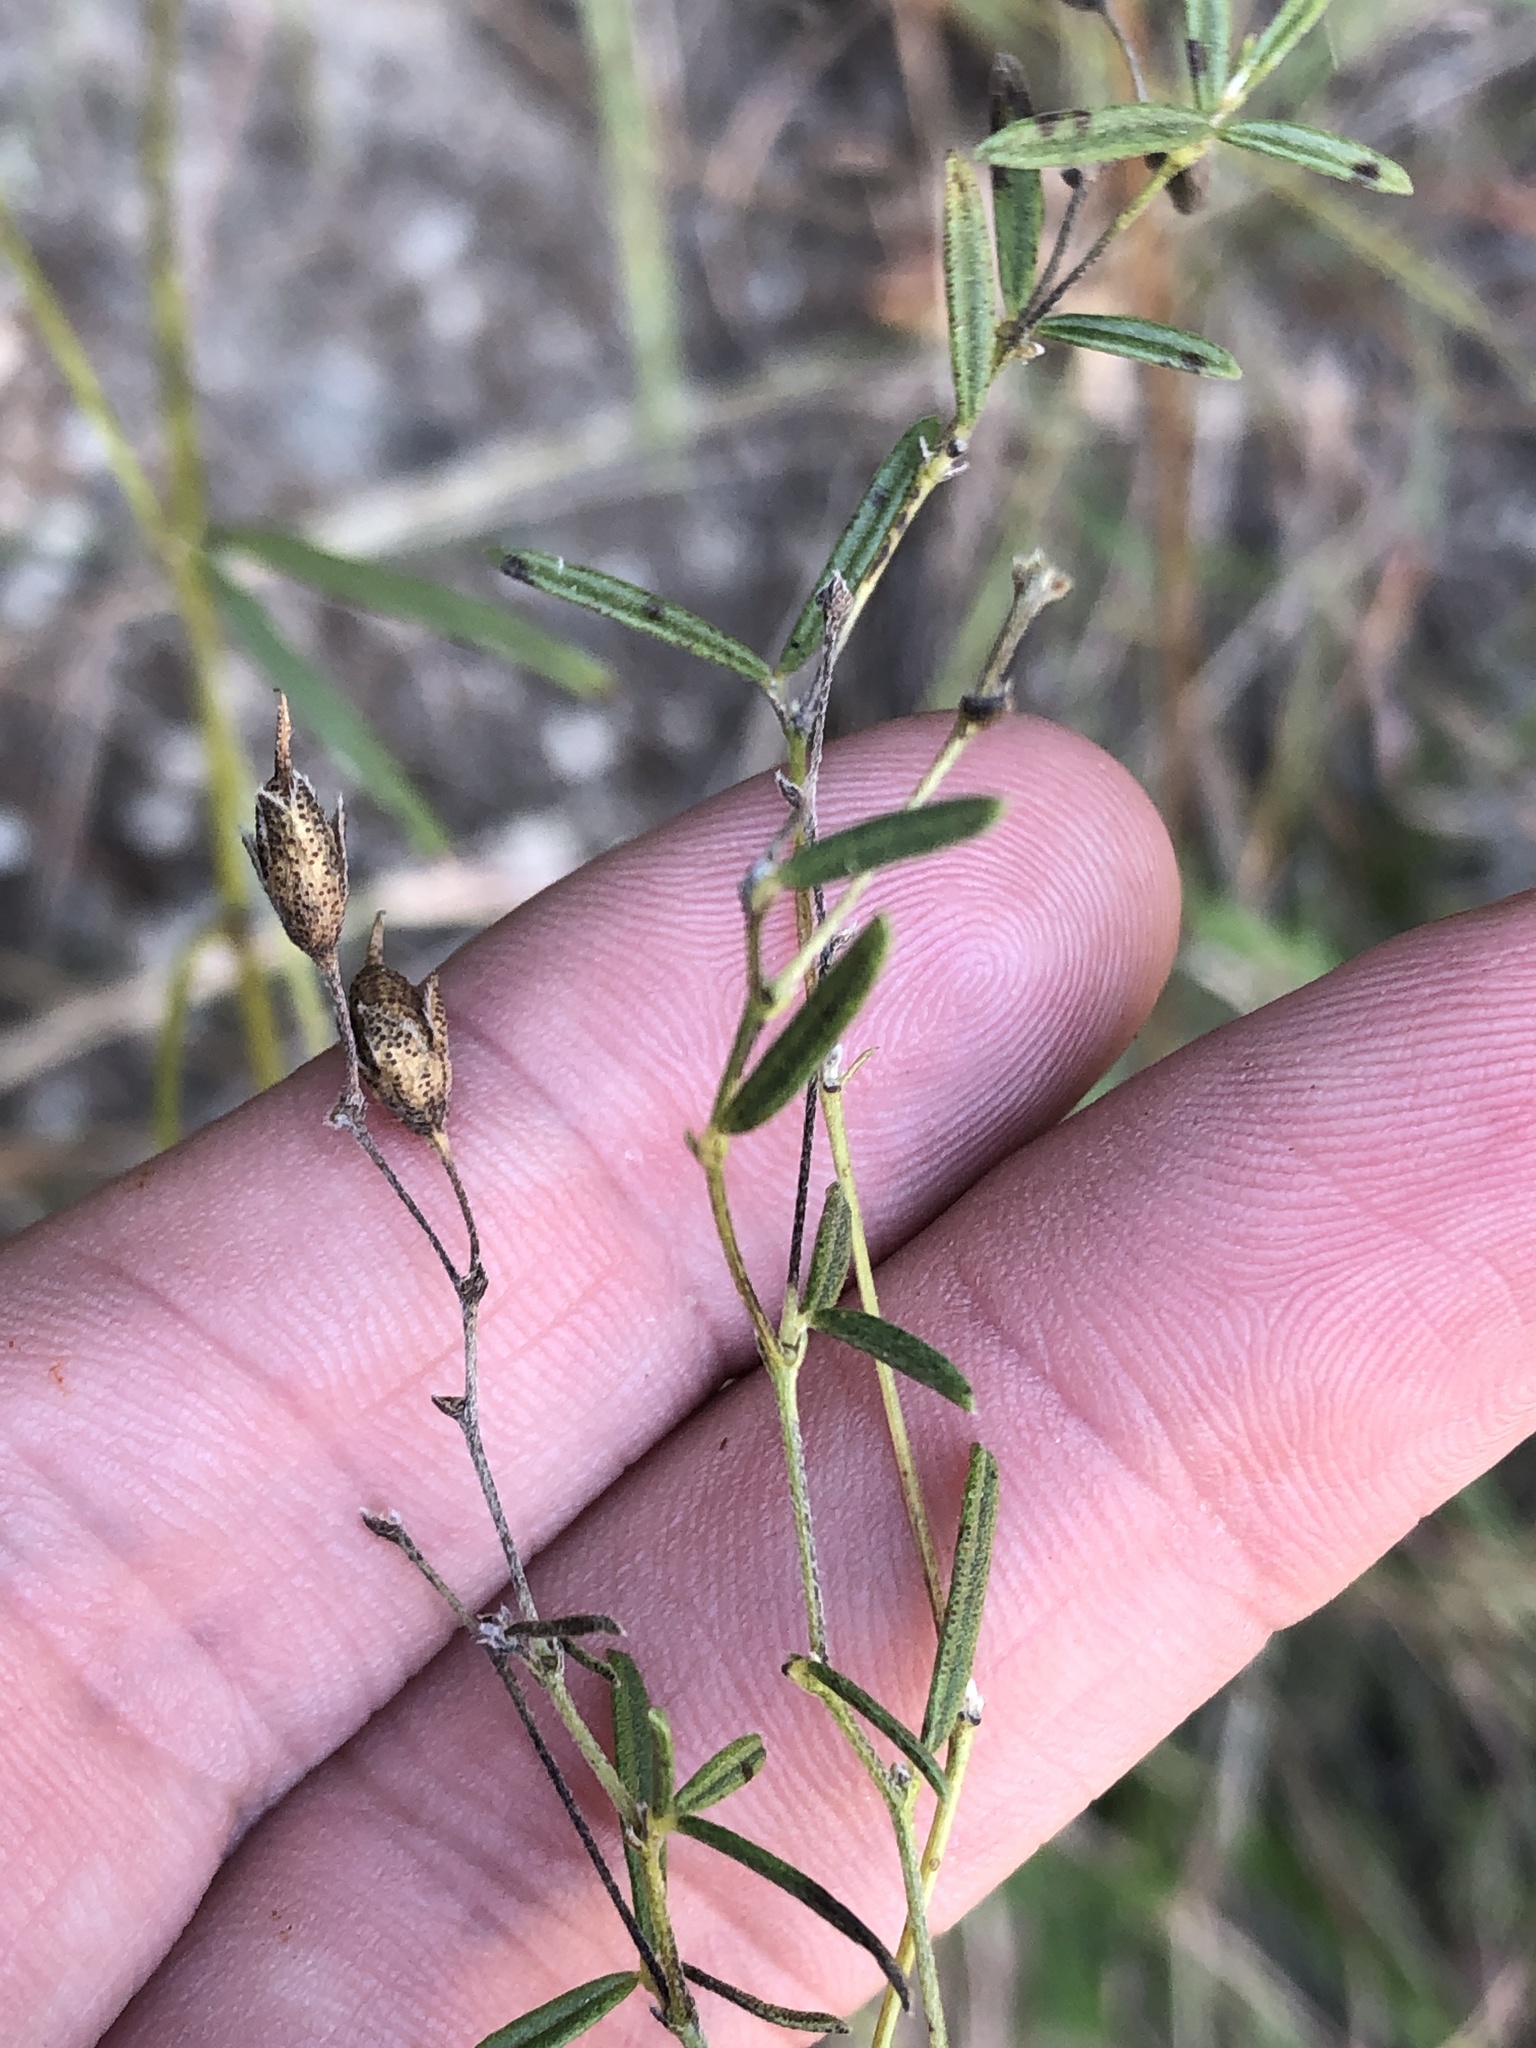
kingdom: Plantae
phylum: Tracheophyta
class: Magnoliopsida
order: Fabales
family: Fabaceae
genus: Pediomelum
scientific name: Pediomelum linearifolium
